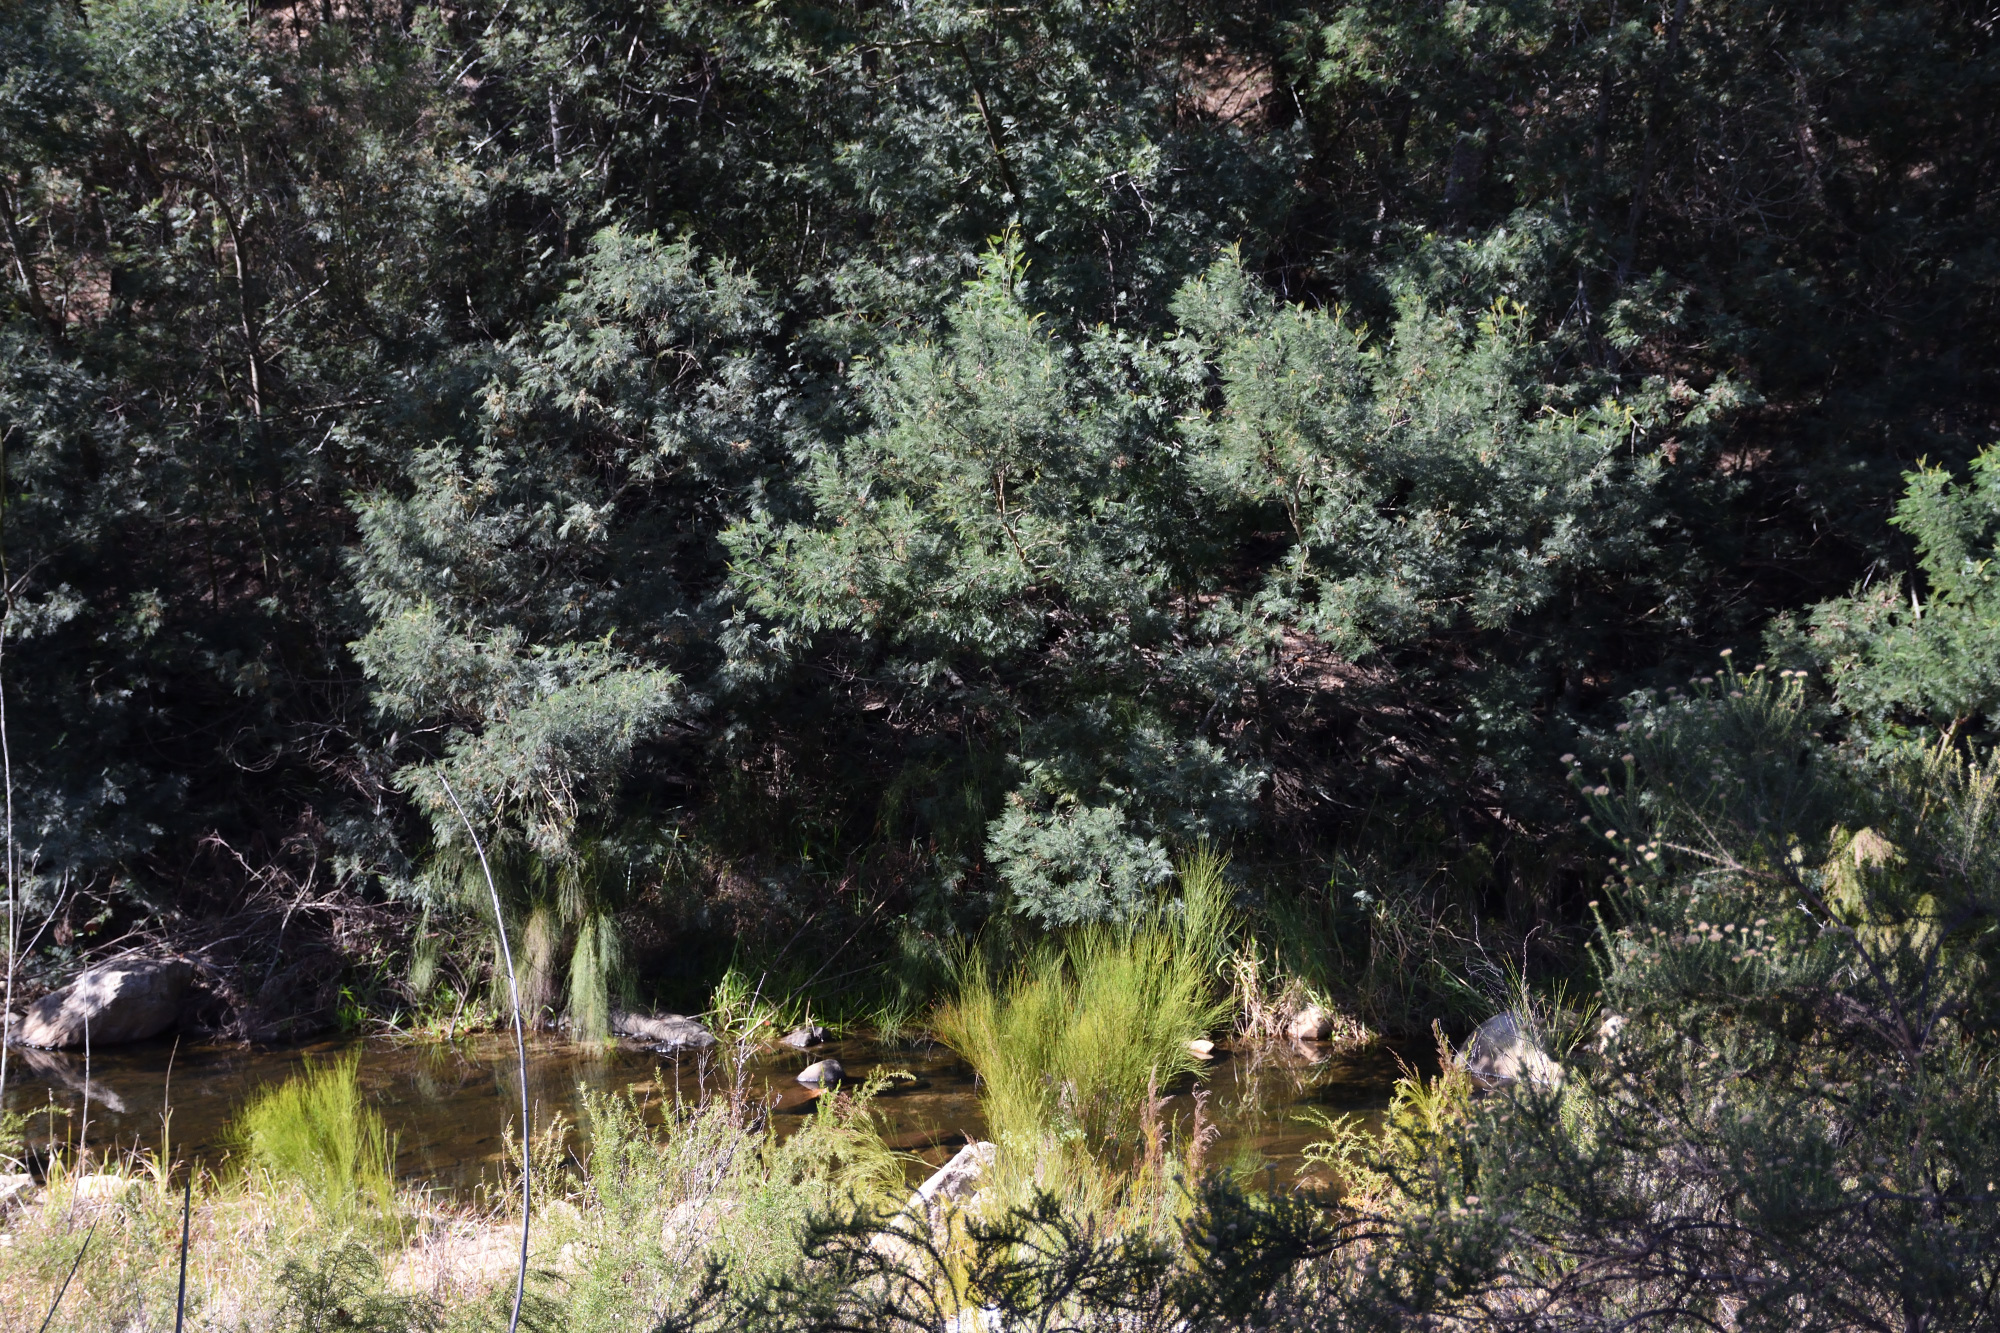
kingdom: Plantae
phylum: Tracheophyta
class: Magnoliopsida
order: Fabales
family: Fabaceae
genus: Acacia
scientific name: Acacia mearnsii
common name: Black wattle
